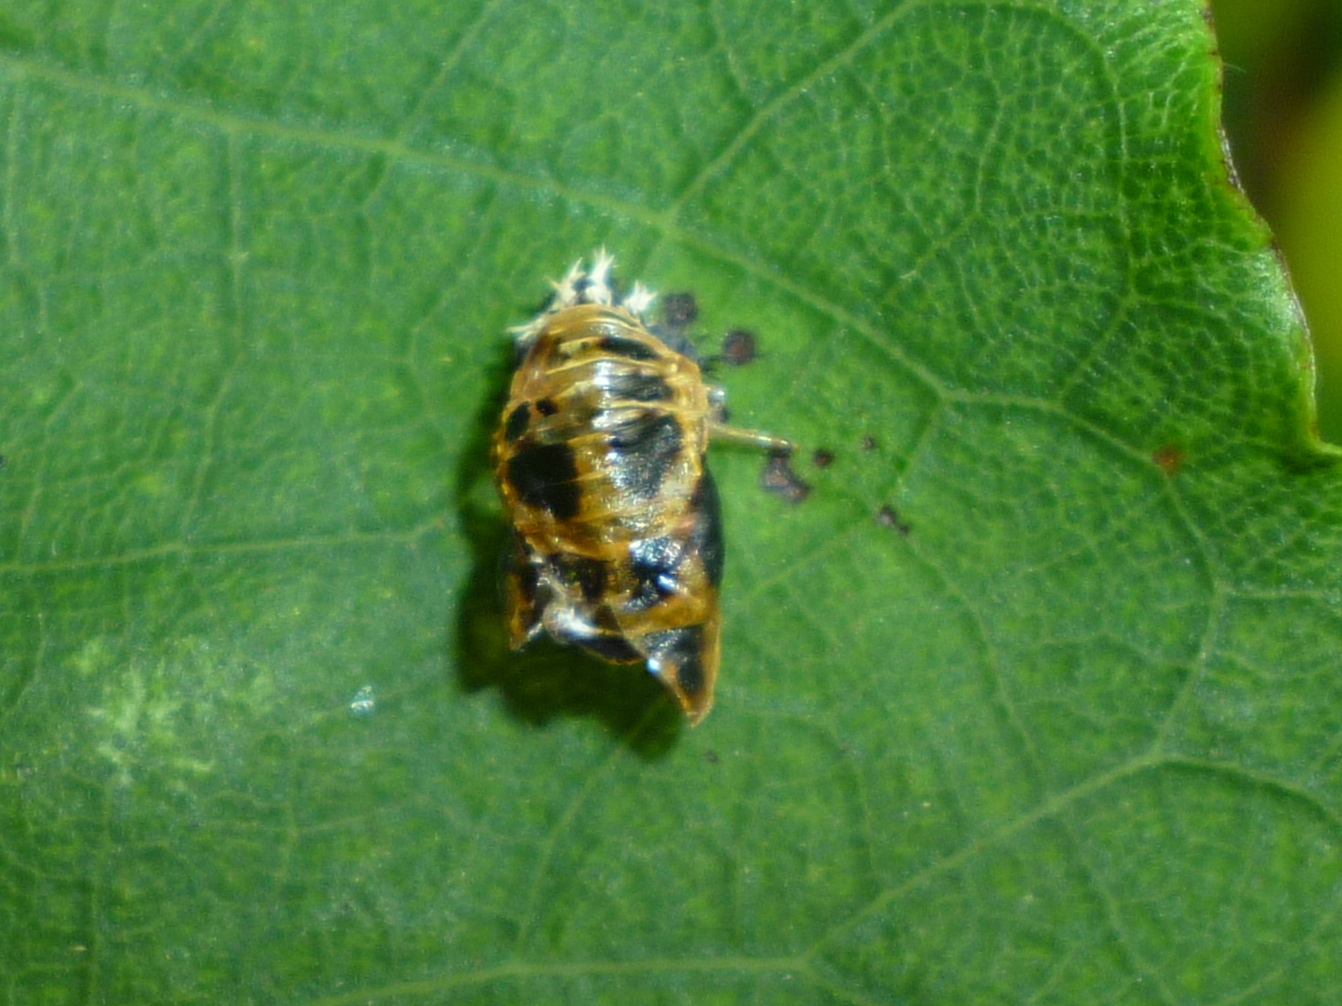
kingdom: Animalia
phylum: Arthropoda
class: Insecta
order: Coleoptera
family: Coccinellidae
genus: Harmonia
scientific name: Harmonia axyridis
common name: Harlequin ladybird
